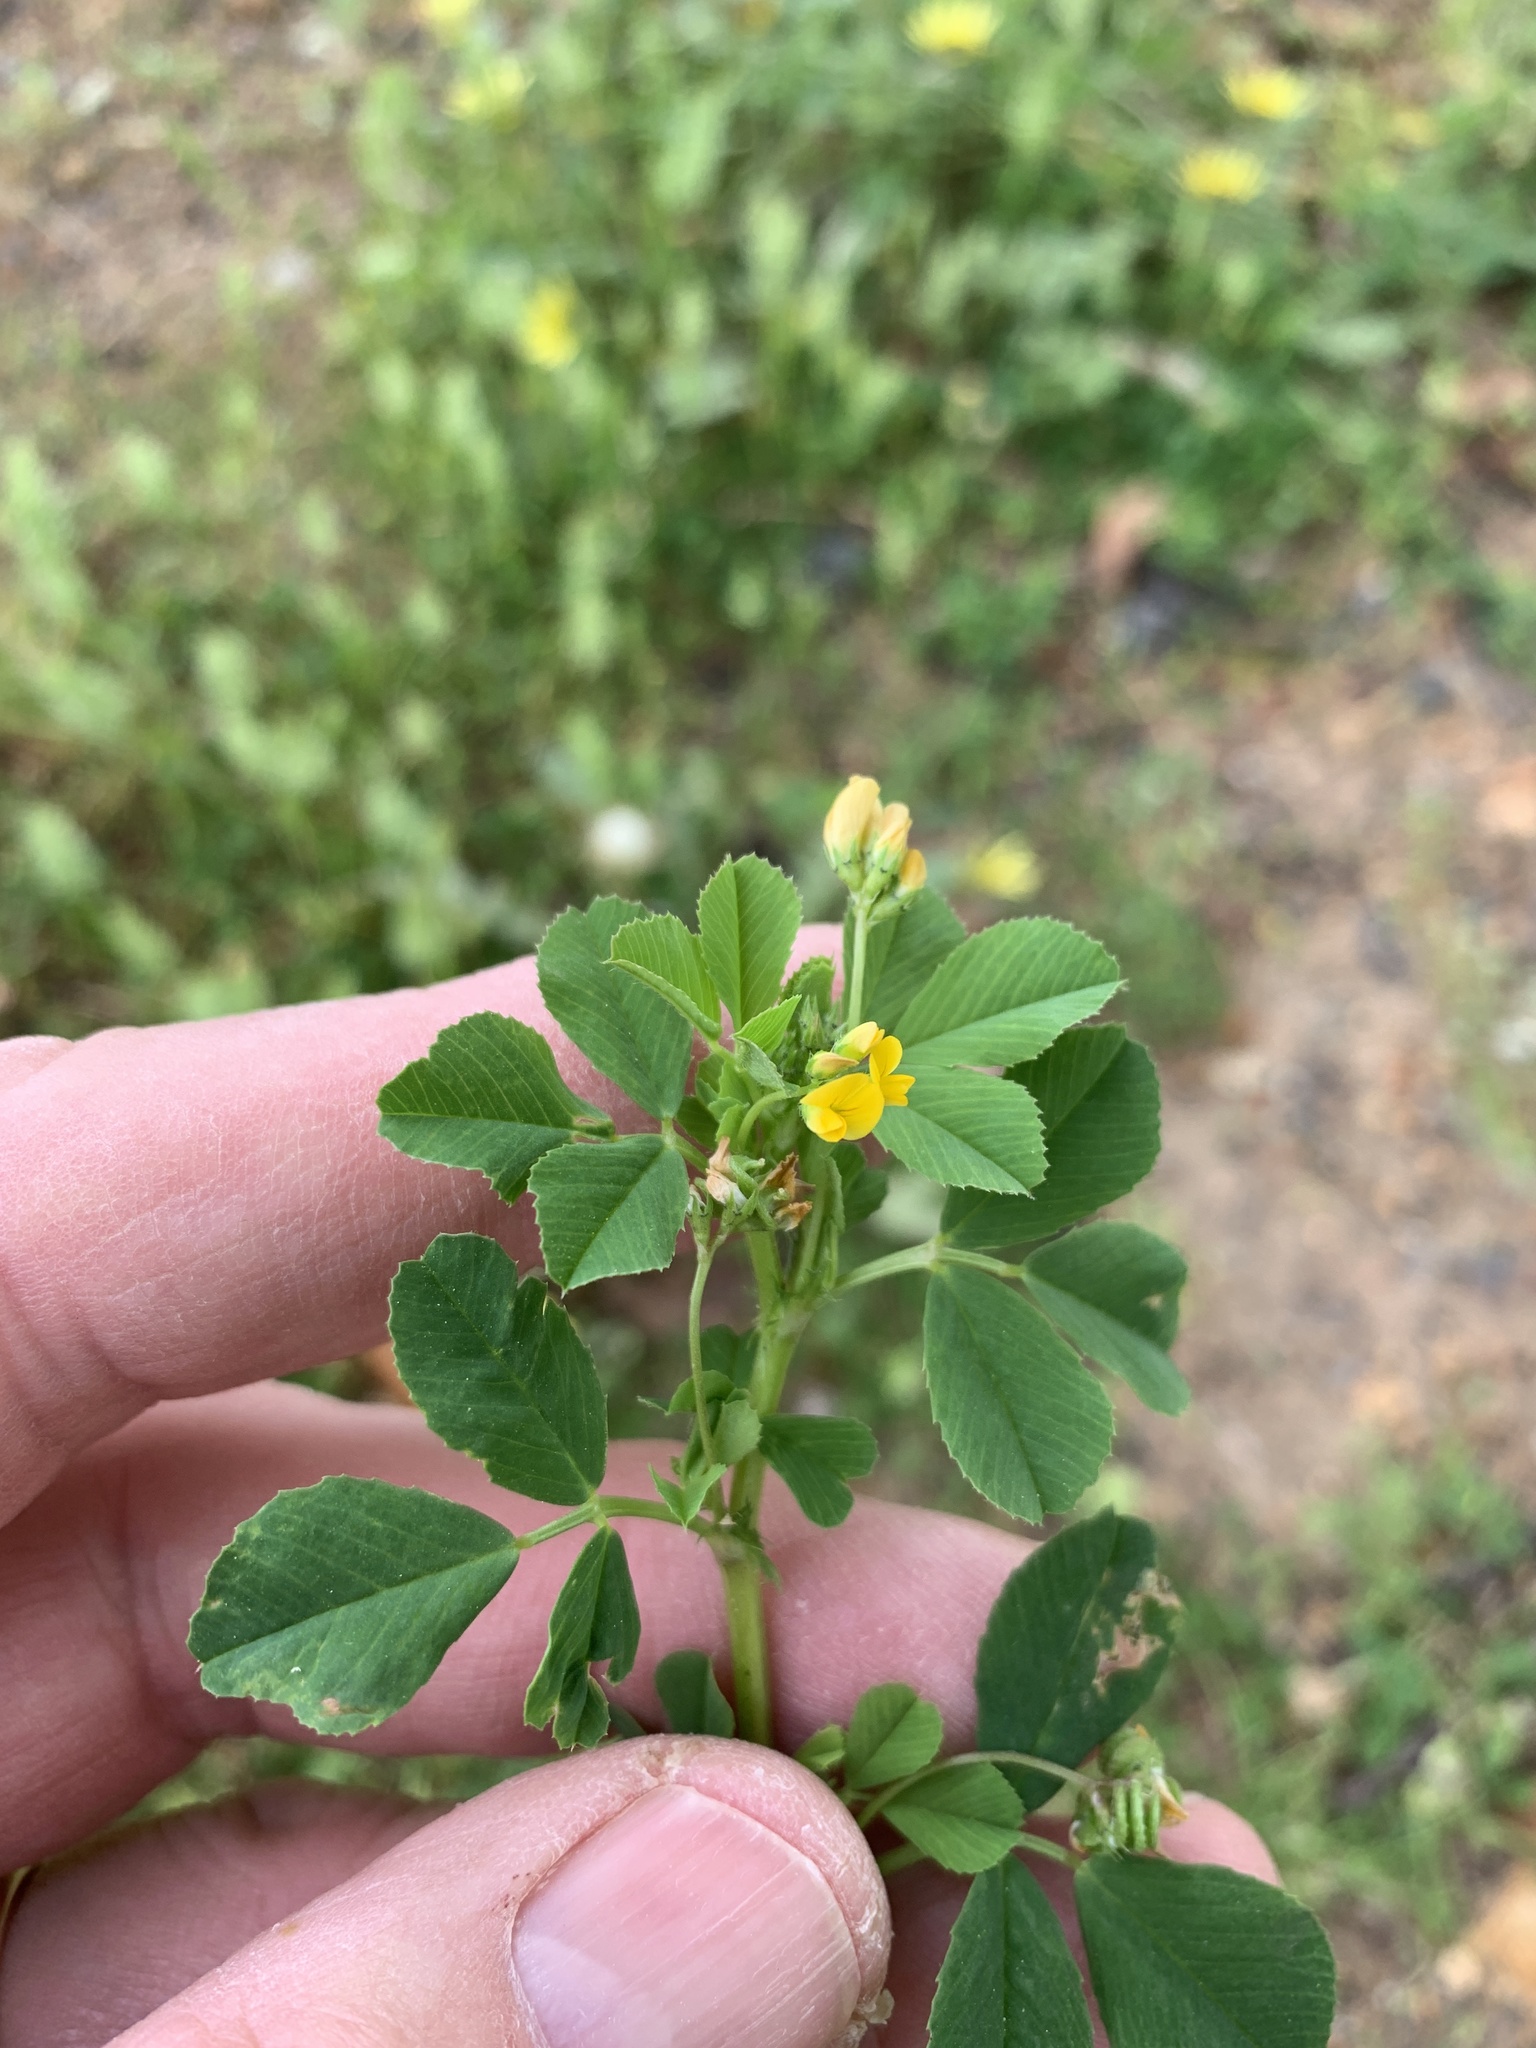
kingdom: Plantae
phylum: Tracheophyta
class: Magnoliopsida
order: Fabales
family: Fabaceae
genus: Medicago
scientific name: Medicago polymorpha
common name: Burclover
